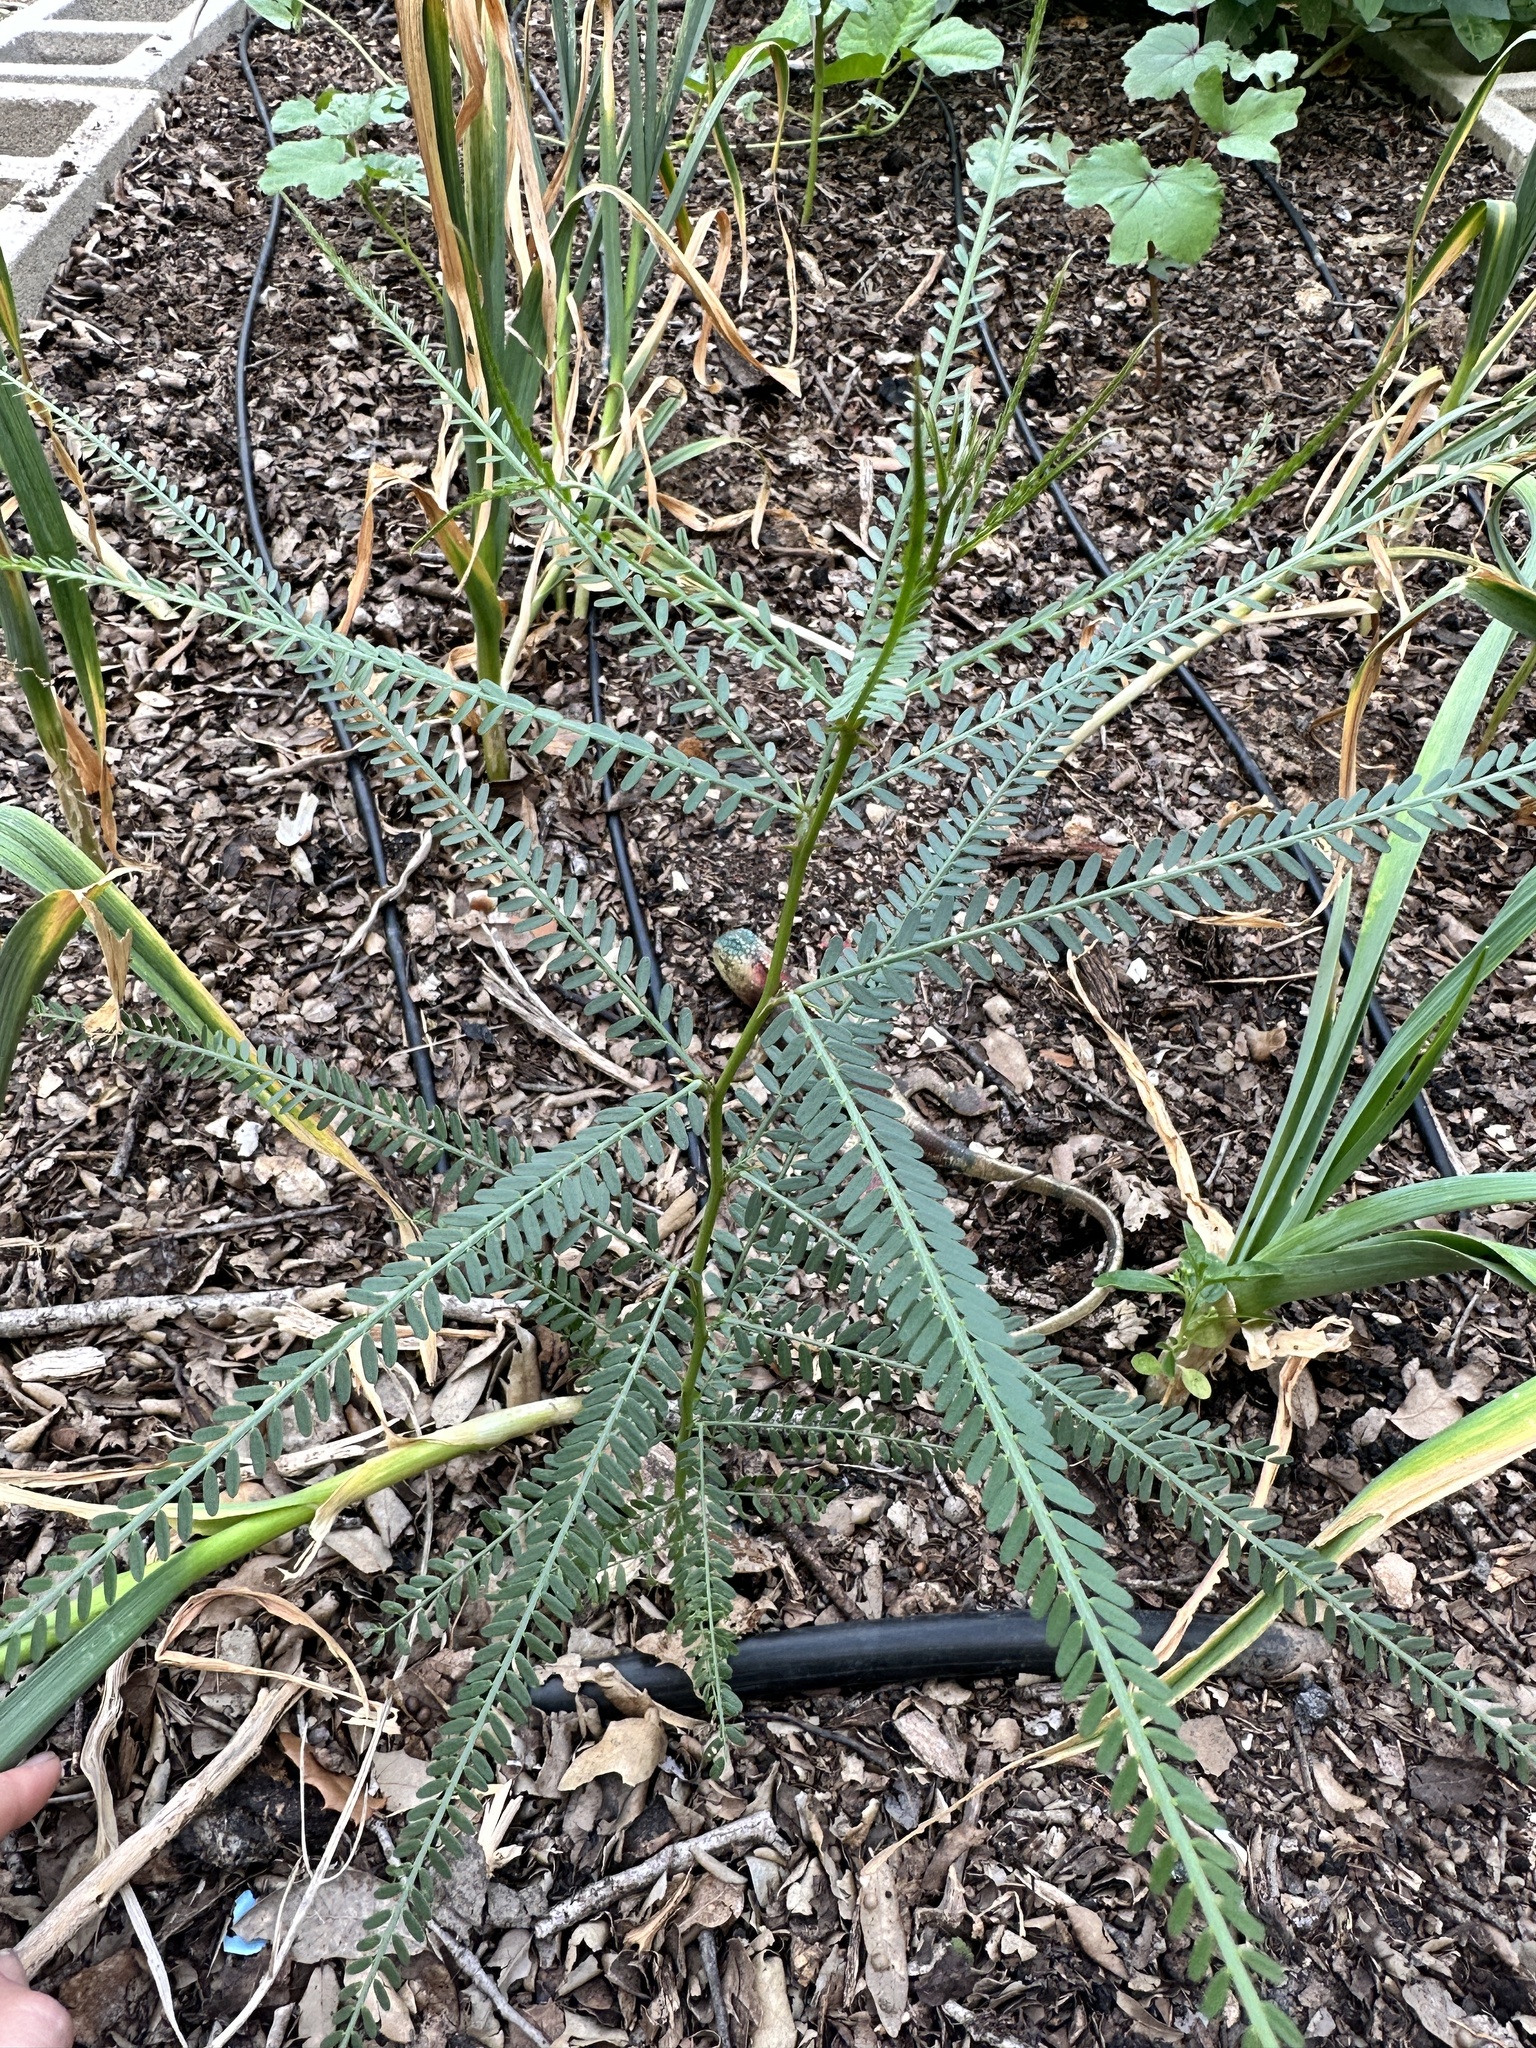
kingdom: Plantae
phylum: Tracheophyta
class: Magnoliopsida
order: Fabales
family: Fabaceae
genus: Parkinsonia
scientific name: Parkinsonia aculeata
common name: Jerusalem thorn
